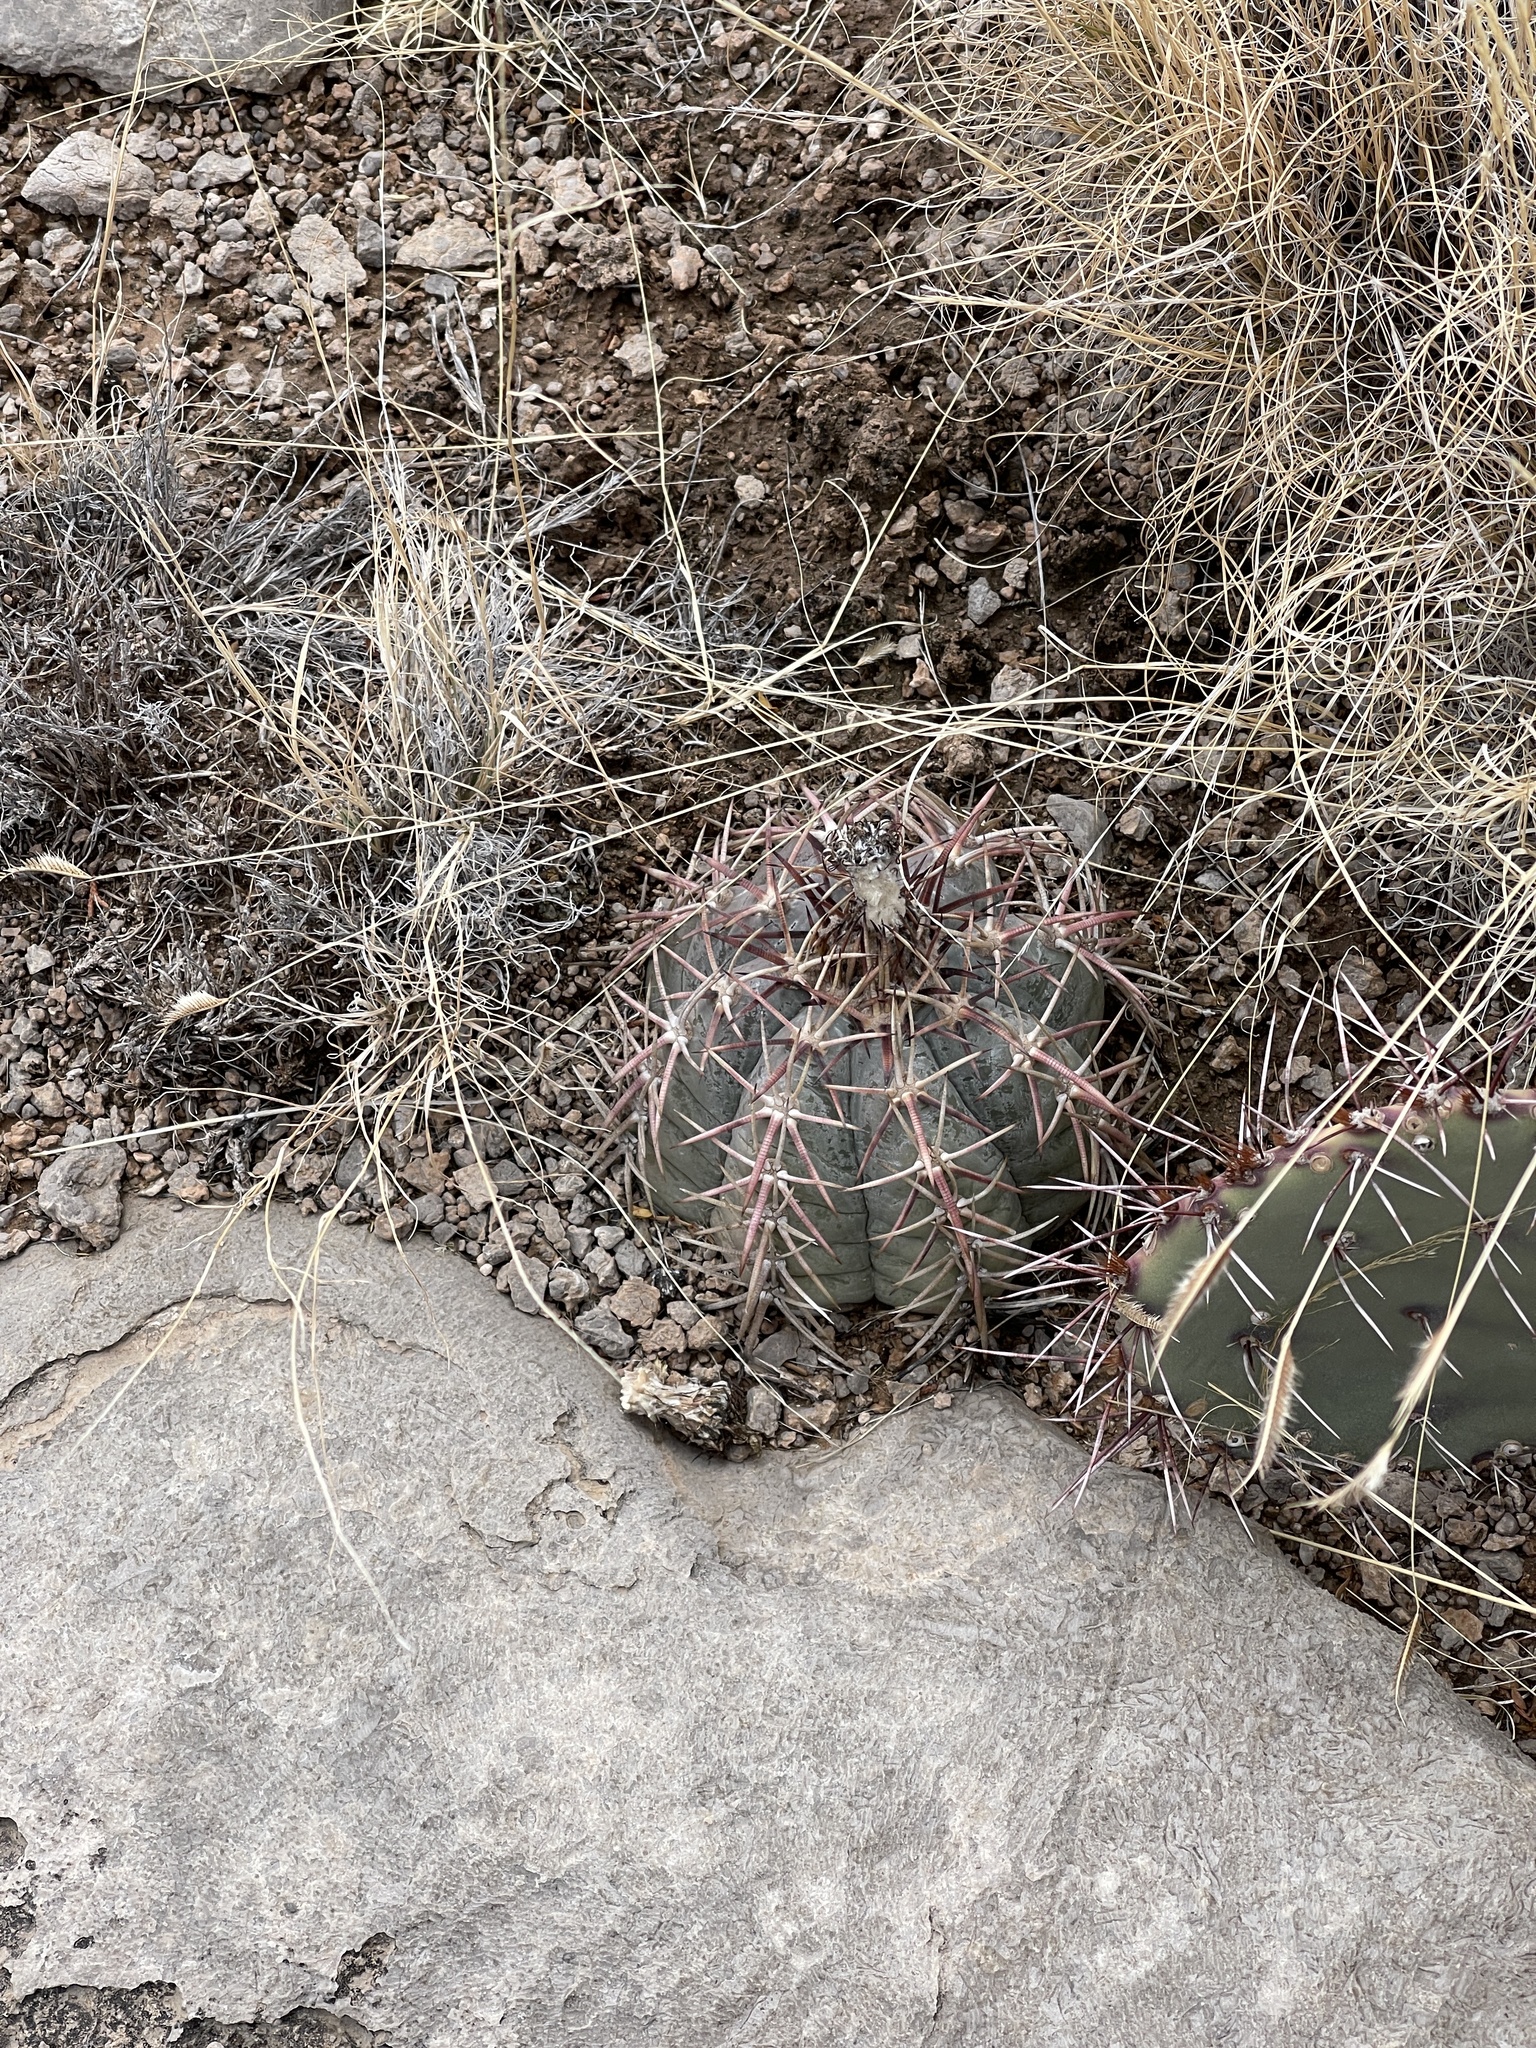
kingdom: Plantae
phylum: Tracheophyta
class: Magnoliopsida
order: Caryophyllales
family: Cactaceae
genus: Echinocactus
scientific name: Echinocactus horizonthalonius
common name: Devilshead
